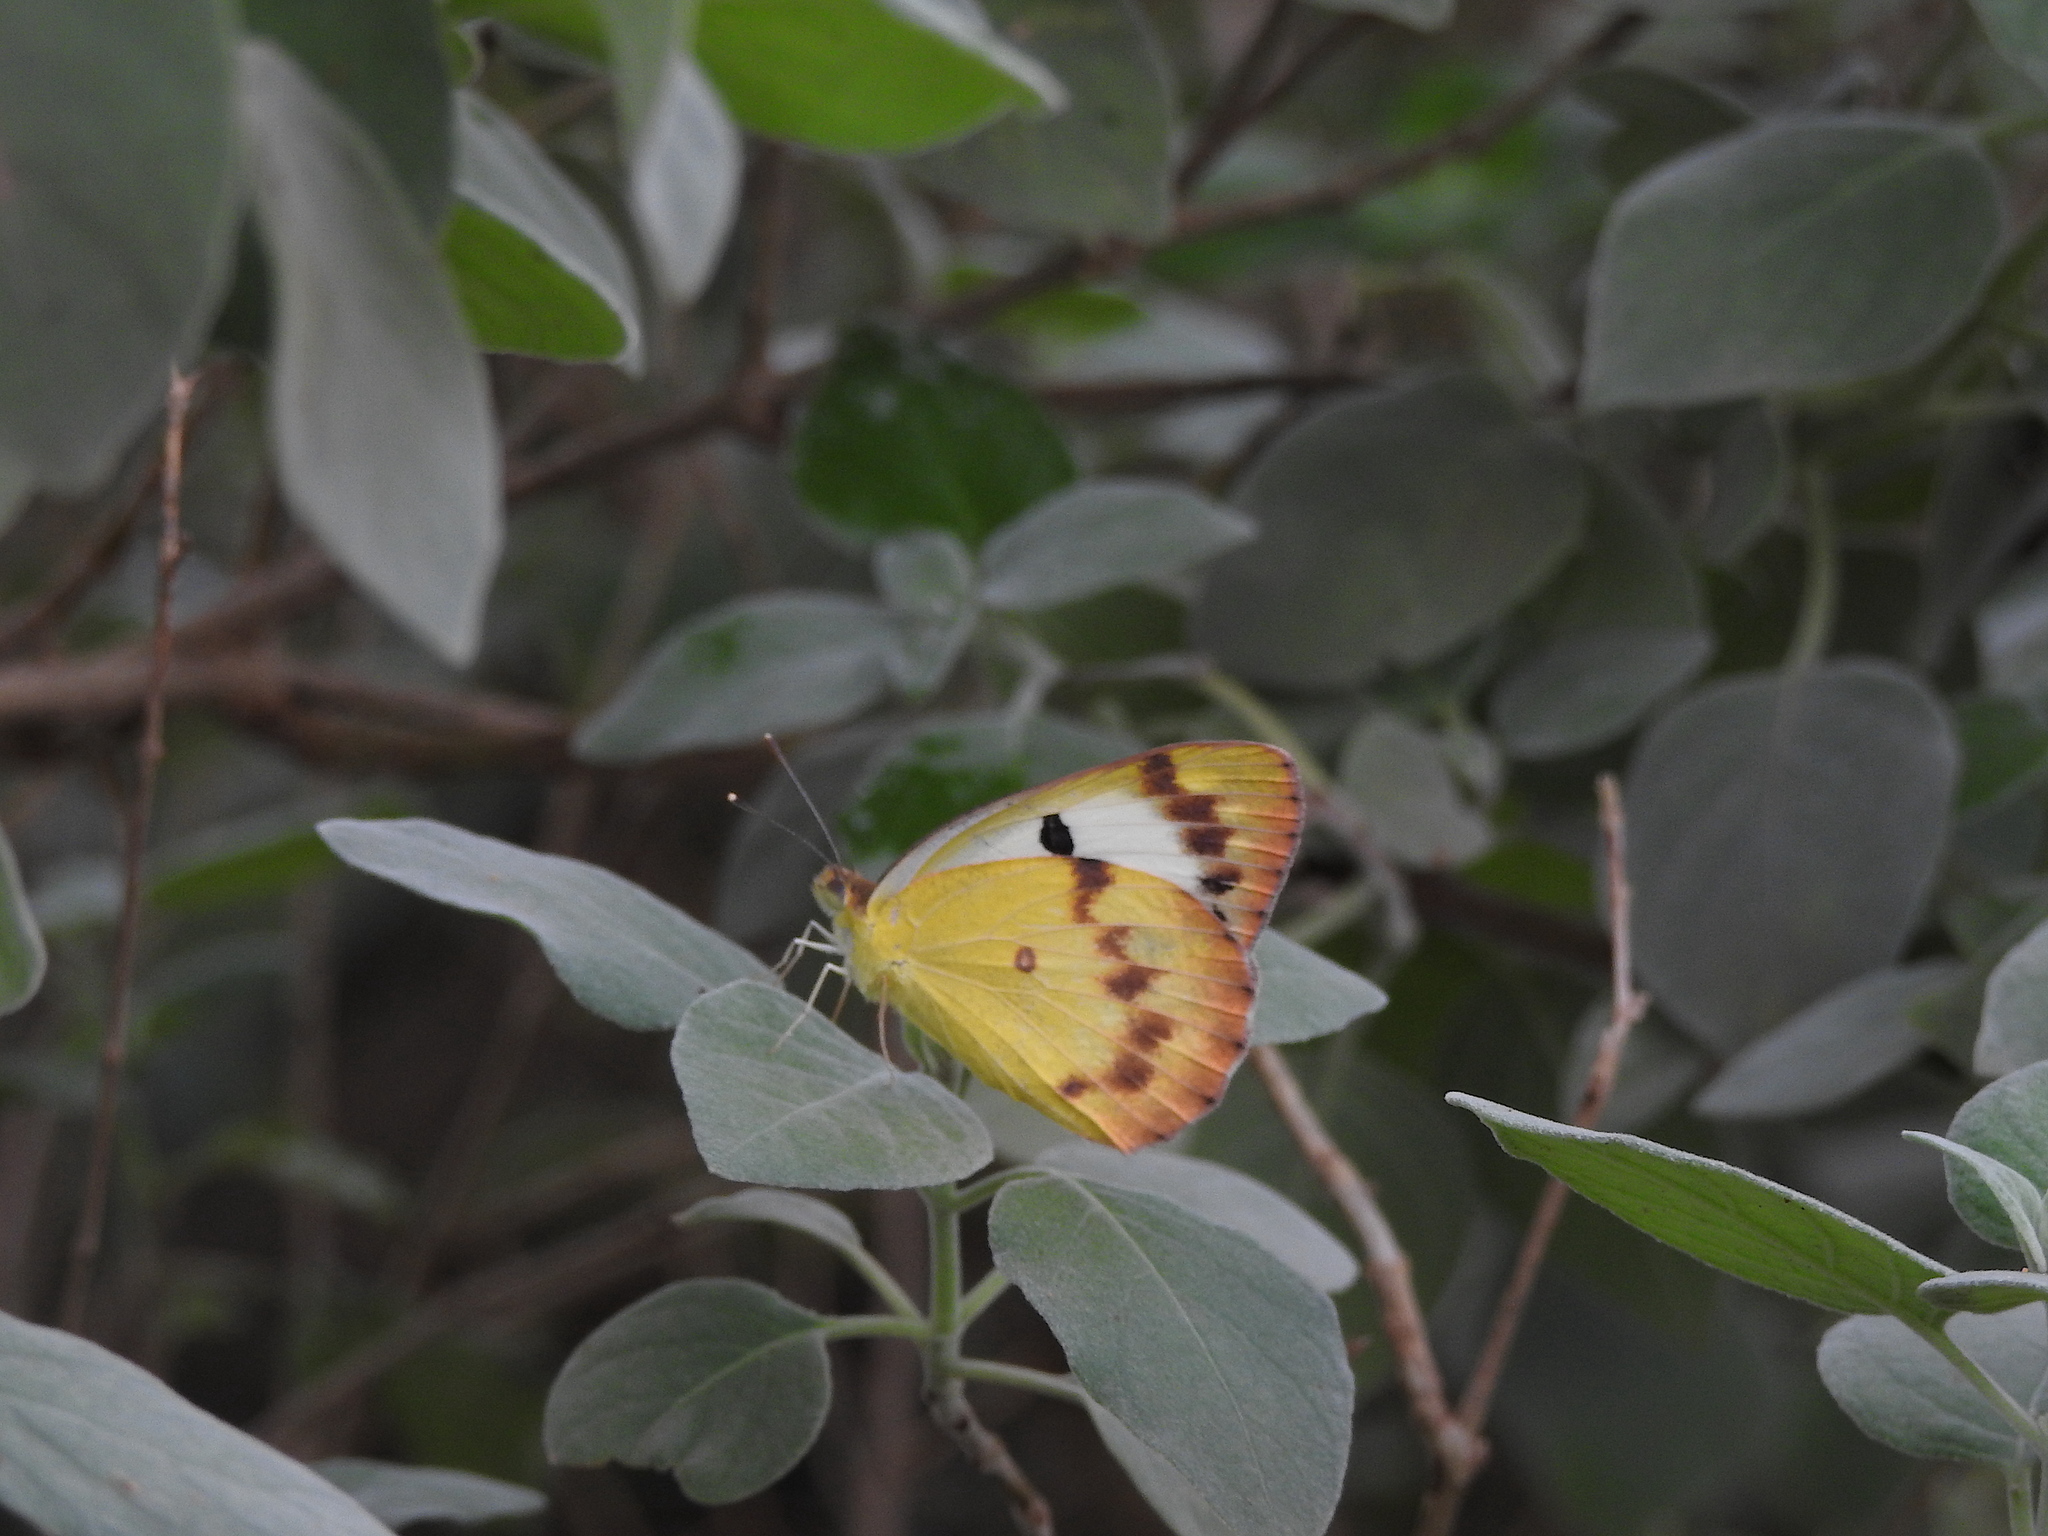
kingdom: Animalia
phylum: Arthropoda
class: Insecta
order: Lepidoptera
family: Pieridae
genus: Colotis
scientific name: Colotis fausta
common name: Large salmon arab
